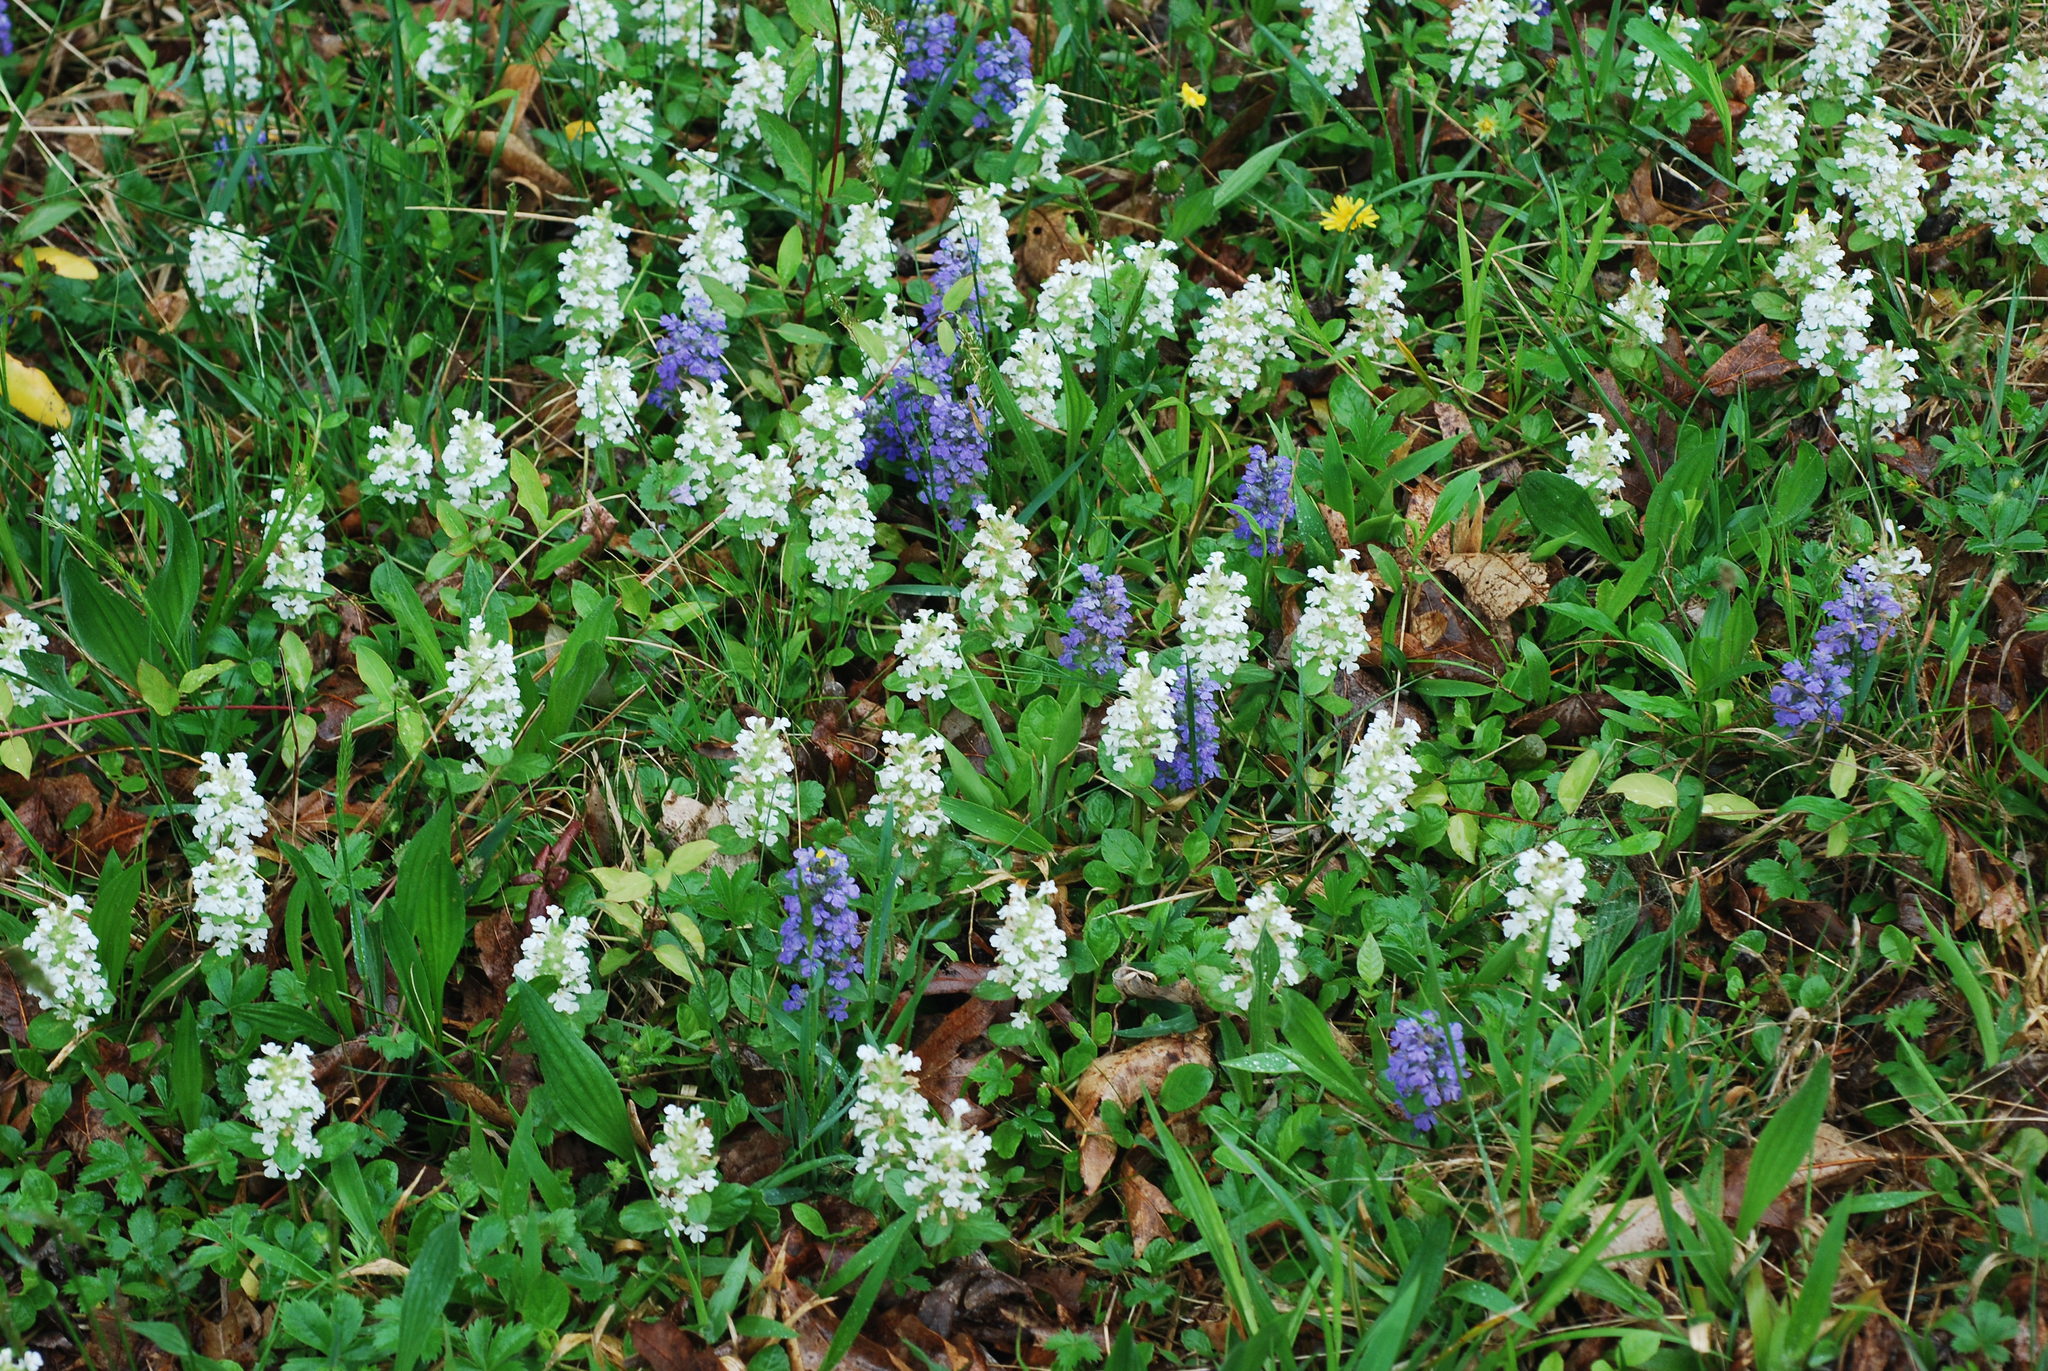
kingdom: Plantae
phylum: Tracheophyta
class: Magnoliopsida
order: Lamiales
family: Lamiaceae
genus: Ajuga
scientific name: Ajuga reptans
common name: Bugle
